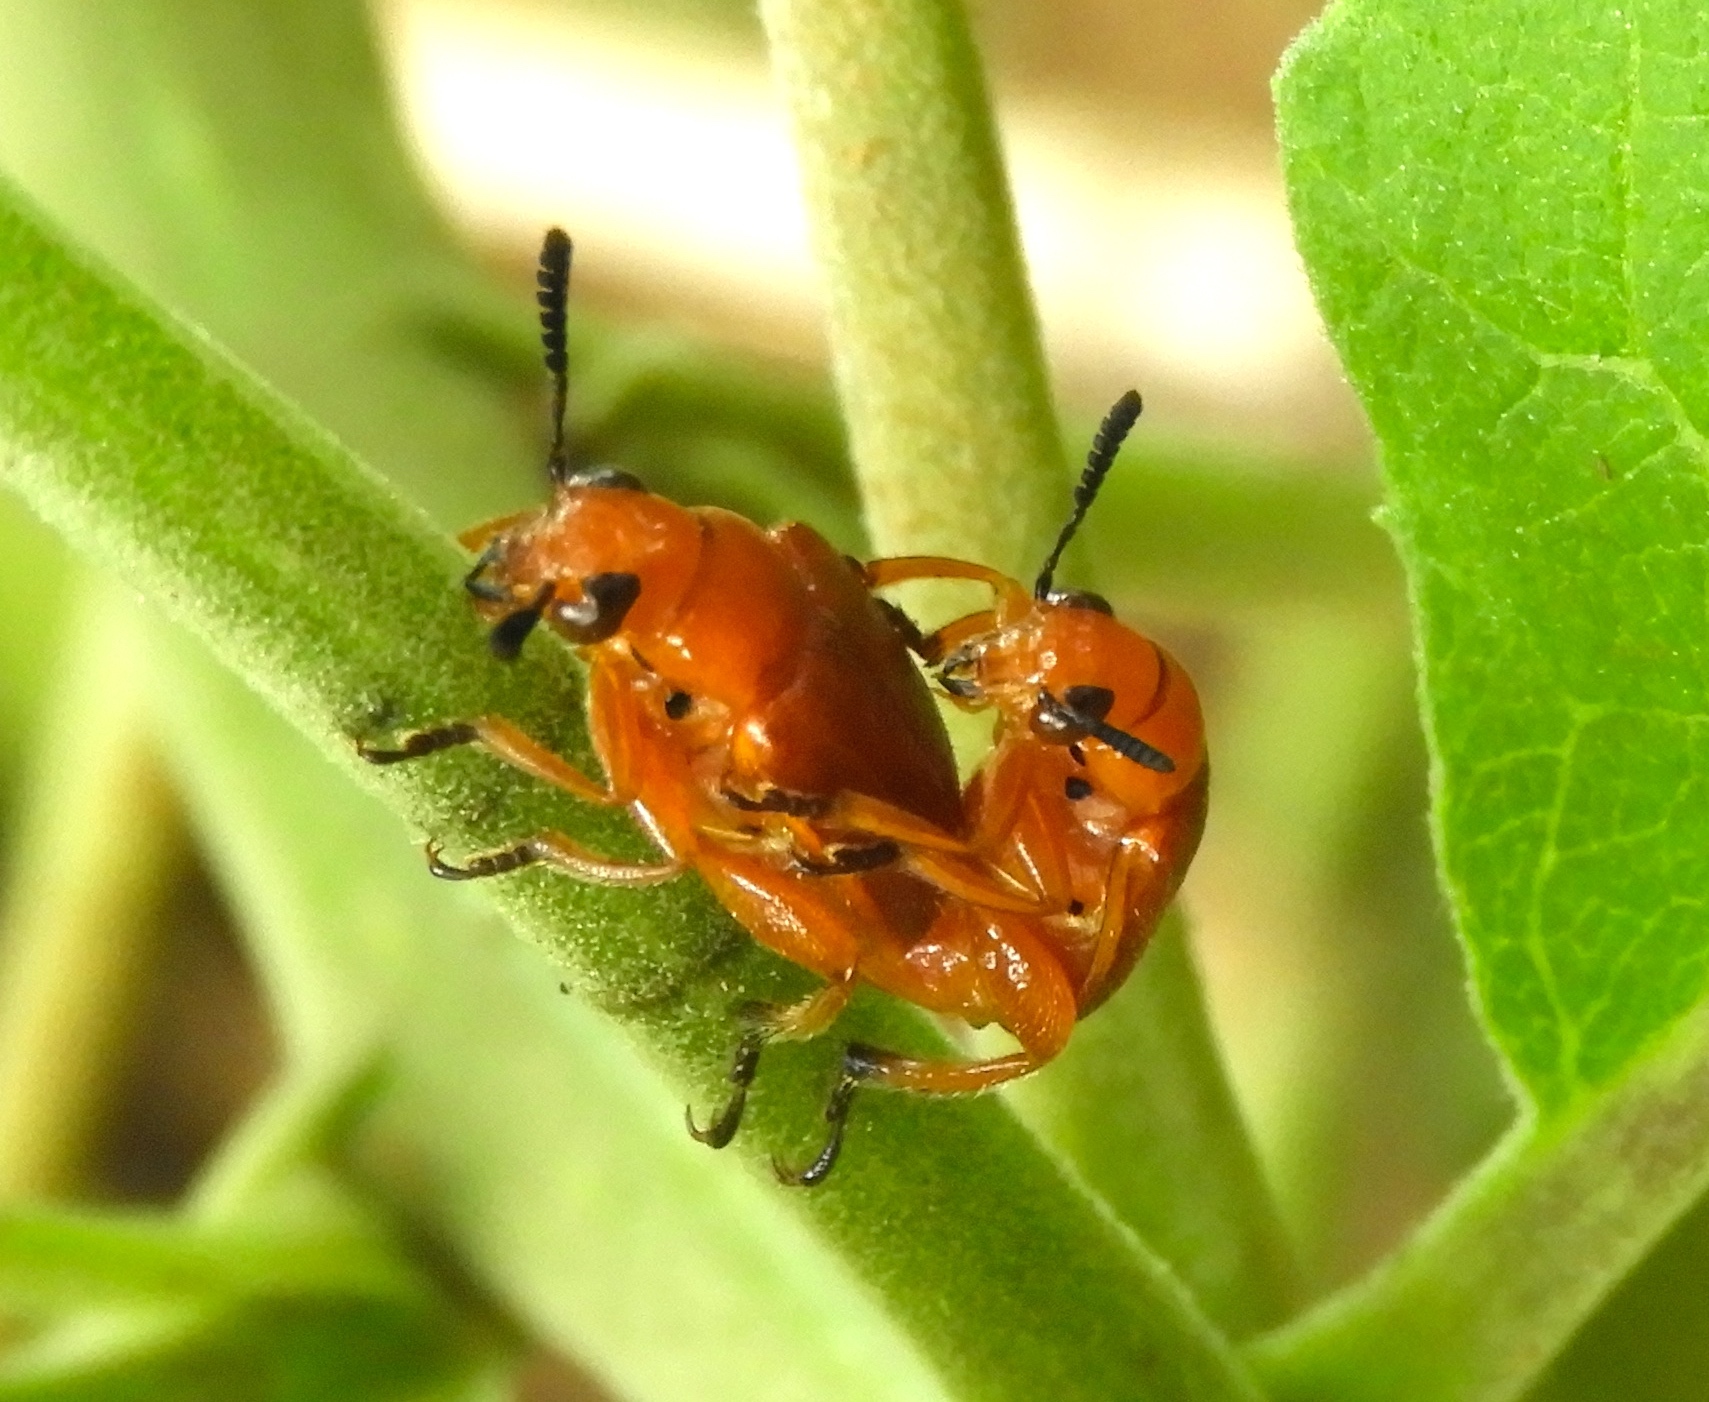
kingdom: Animalia
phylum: Arthropoda
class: Insecta
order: Coleoptera
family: Megalopodidae
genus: Agathomerus
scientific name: Agathomerus rufus
